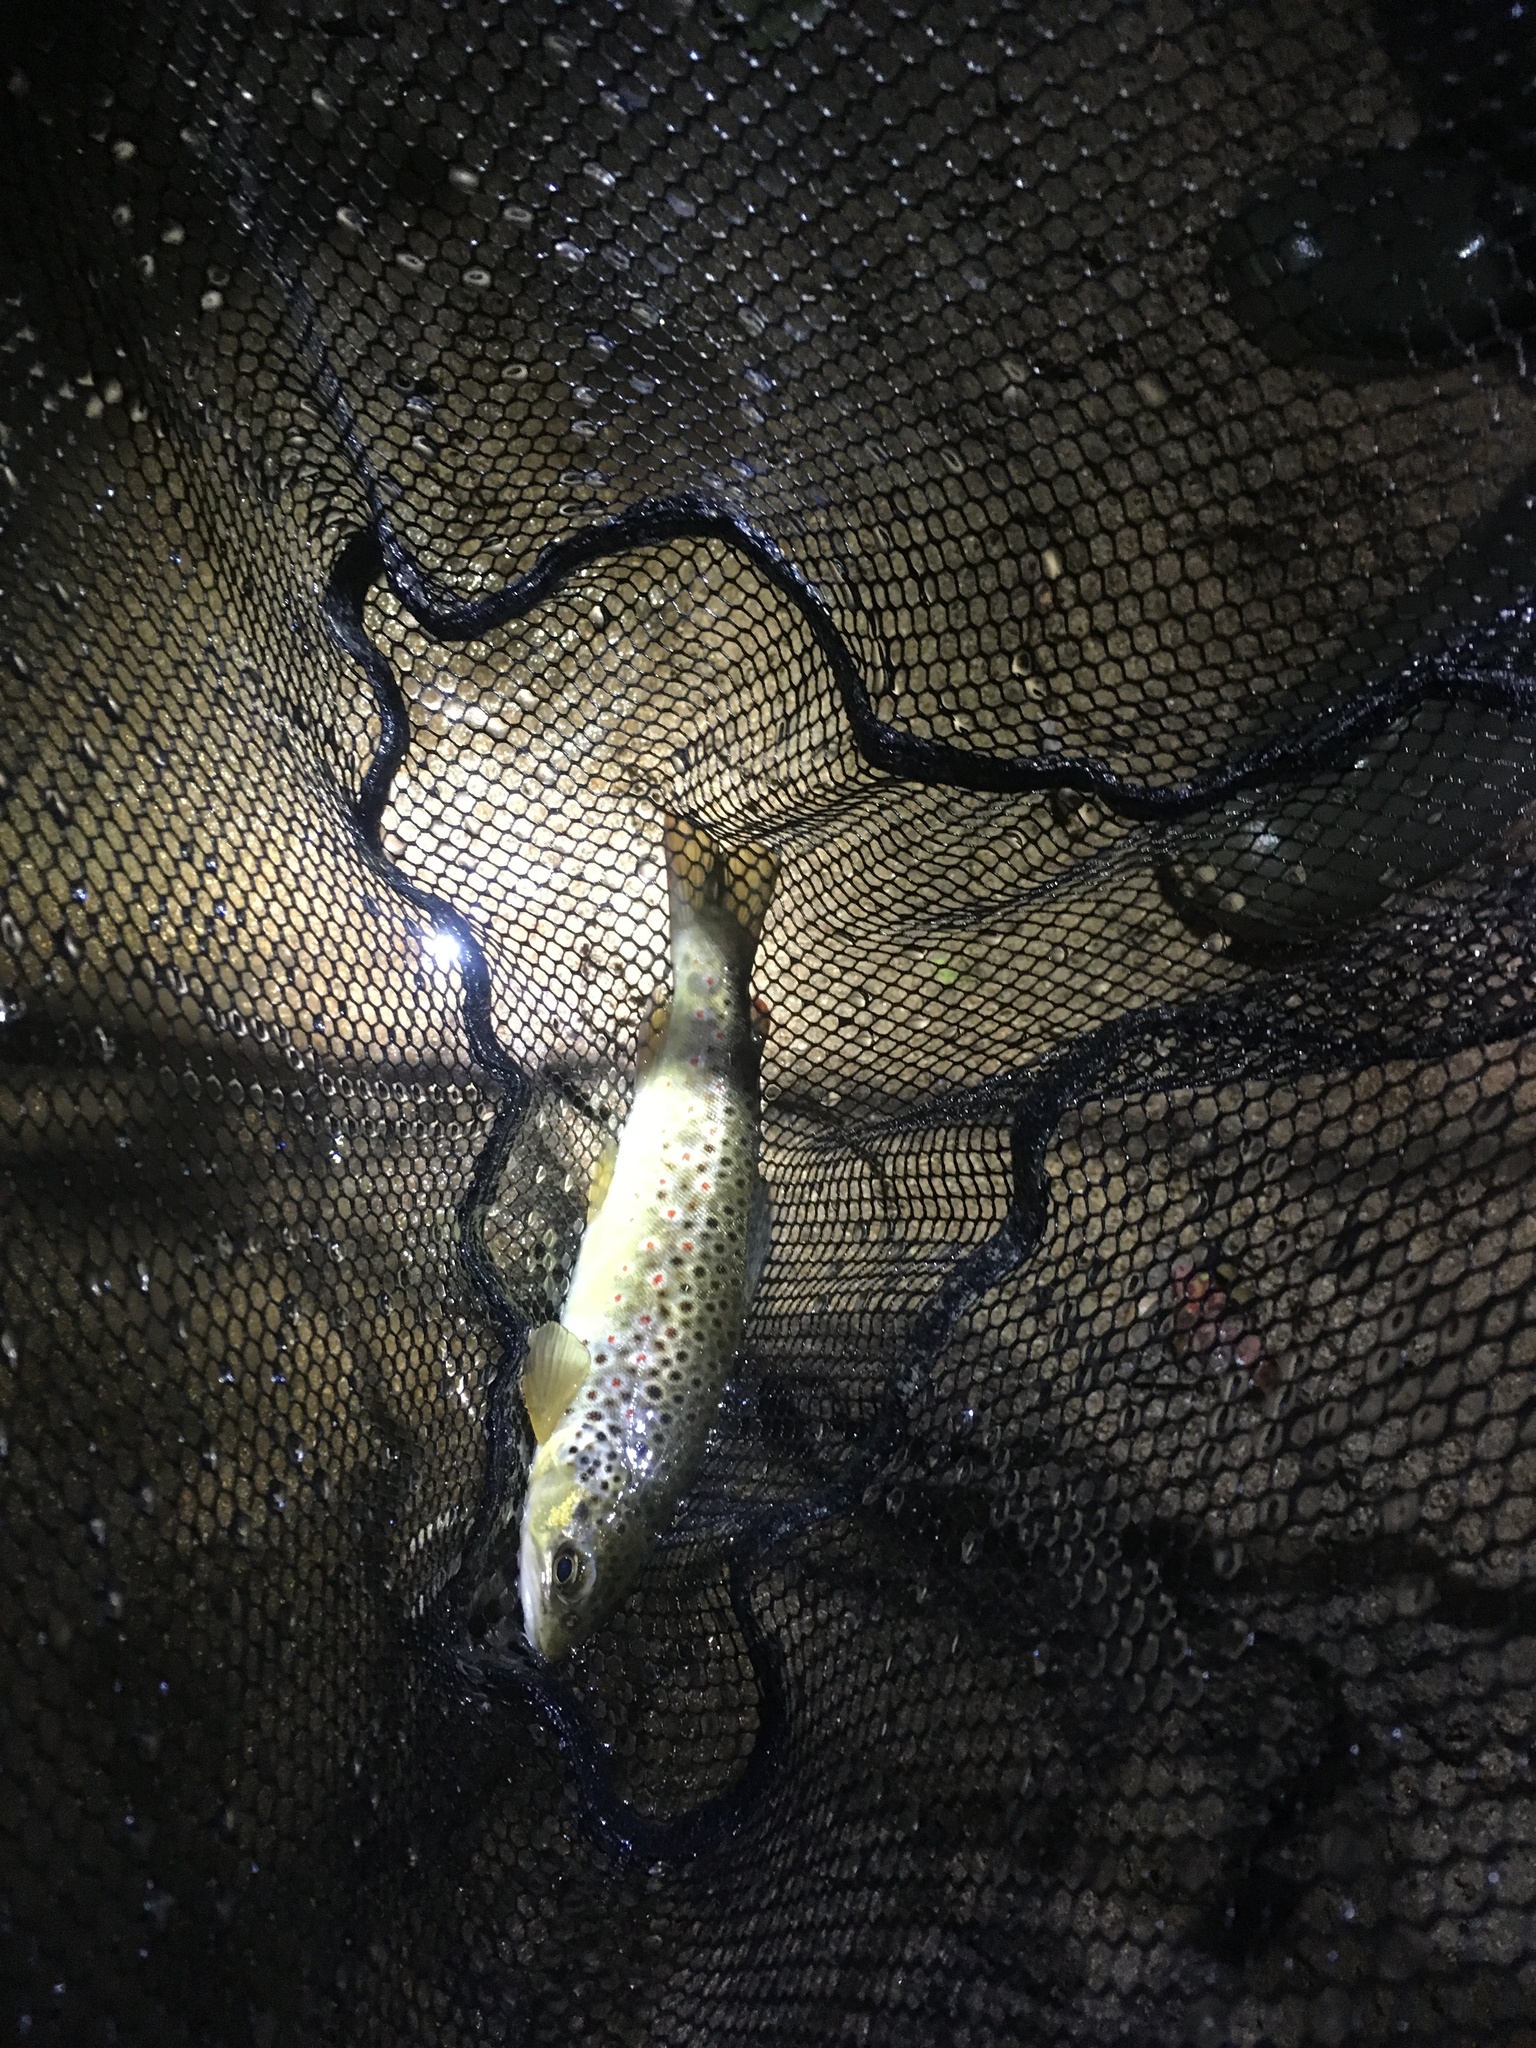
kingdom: Animalia
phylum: Chordata
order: Salmoniformes
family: Salmonidae
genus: Salmo
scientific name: Salmo trutta
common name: Brown trout
